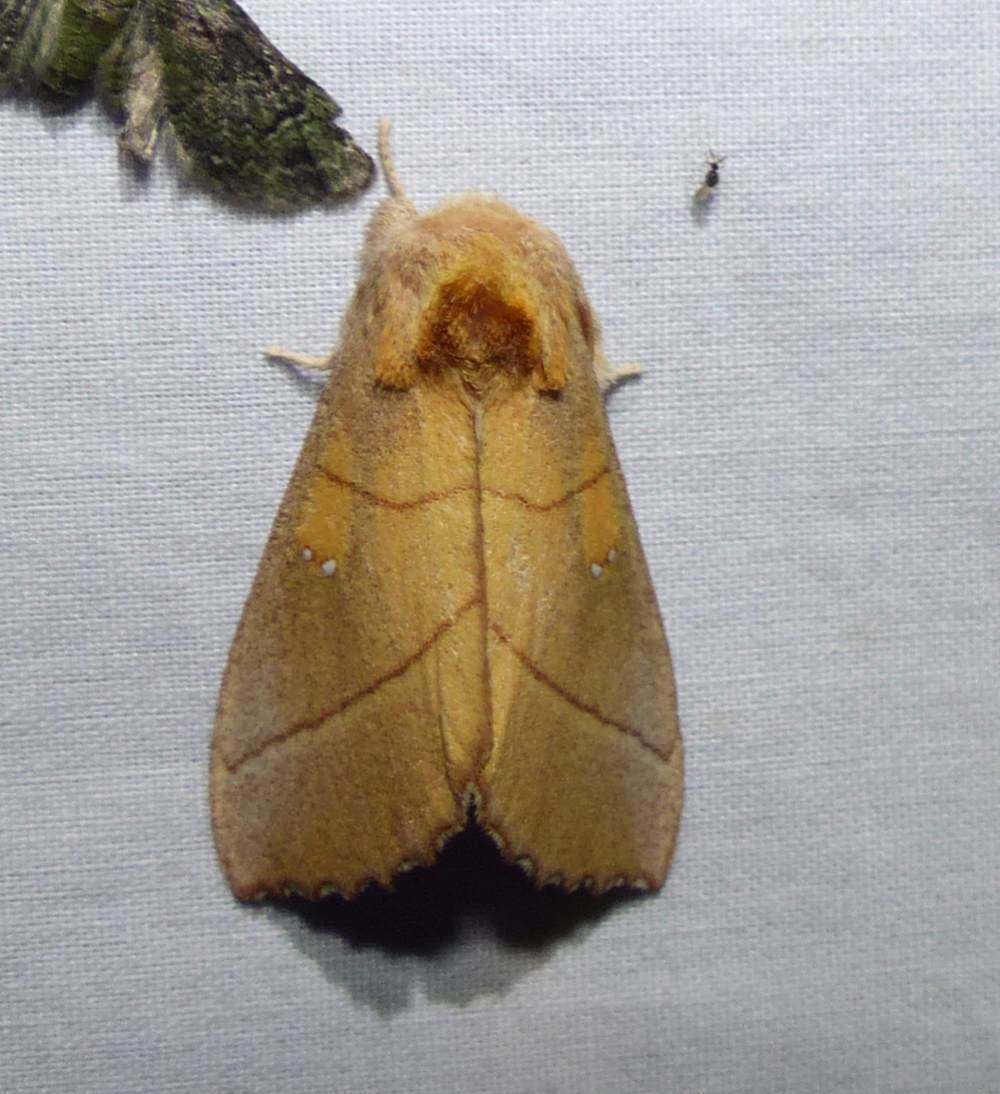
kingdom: Animalia
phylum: Arthropoda
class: Insecta
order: Lepidoptera
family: Notodontidae
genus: Nadata
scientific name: Nadata gibbosa
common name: White-dotted prominent
